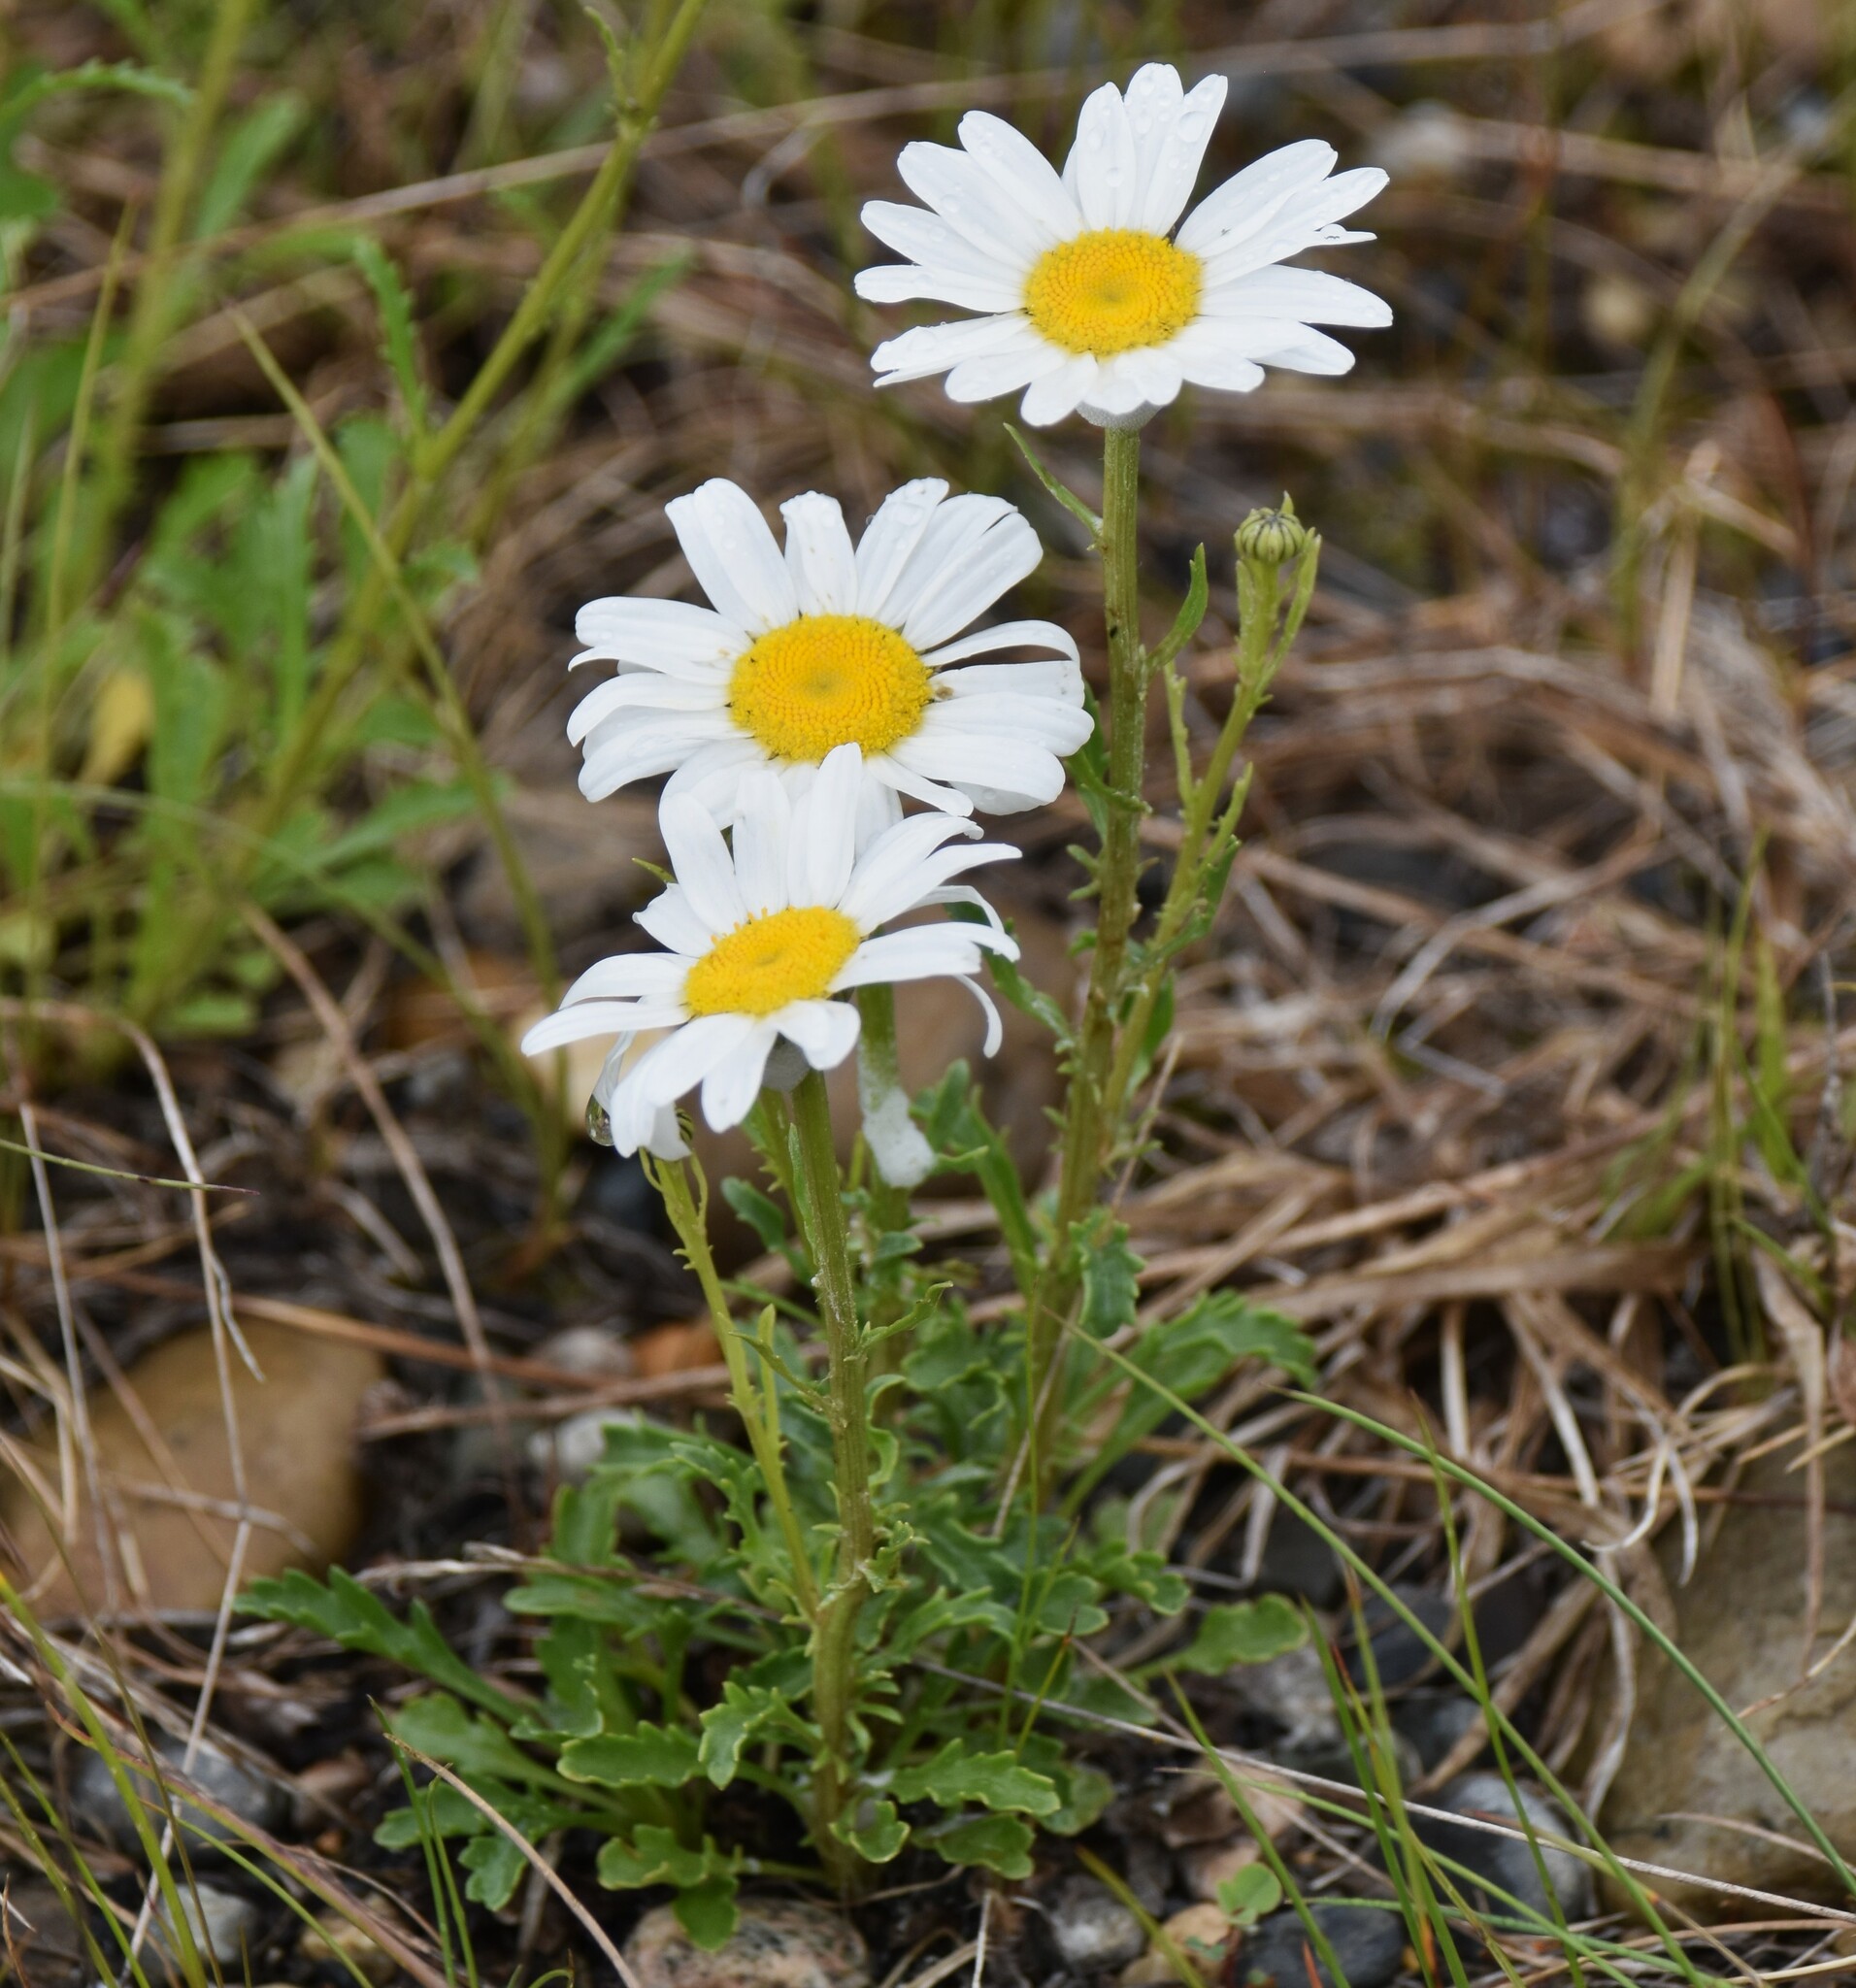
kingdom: Plantae
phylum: Tracheophyta
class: Magnoliopsida
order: Asterales
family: Asteraceae
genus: Leucanthemum
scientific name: Leucanthemum vulgare
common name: Oxeye daisy
